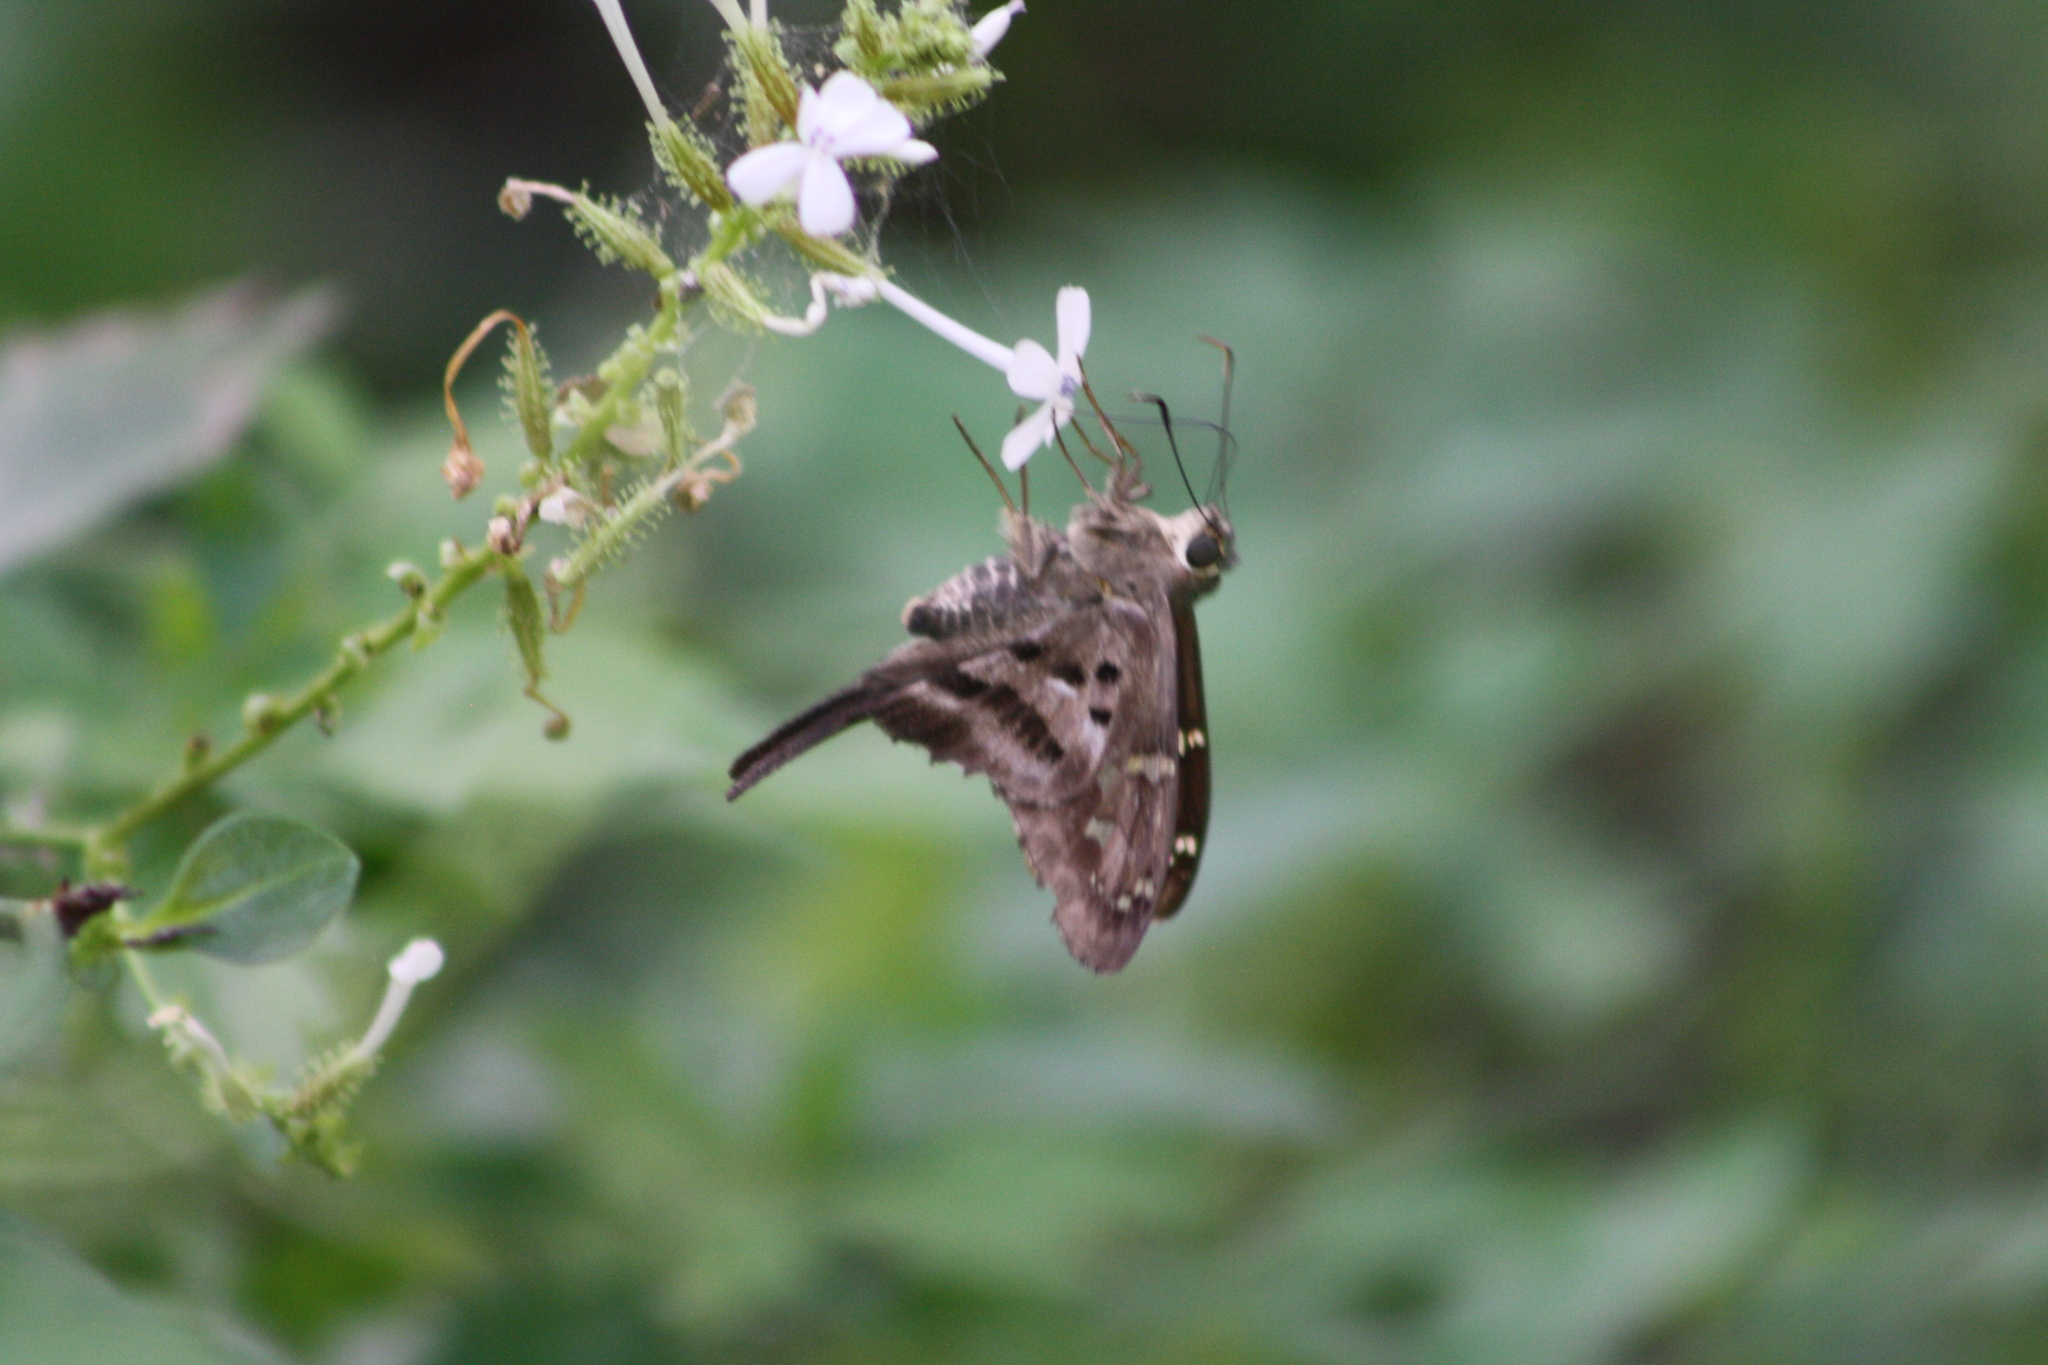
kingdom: Animalia
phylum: Arthropoda
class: Insecta
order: Lepidoptera
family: Hesperiidae
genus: Urbanus
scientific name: Urbanus proteus
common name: Long-tailed skipper
